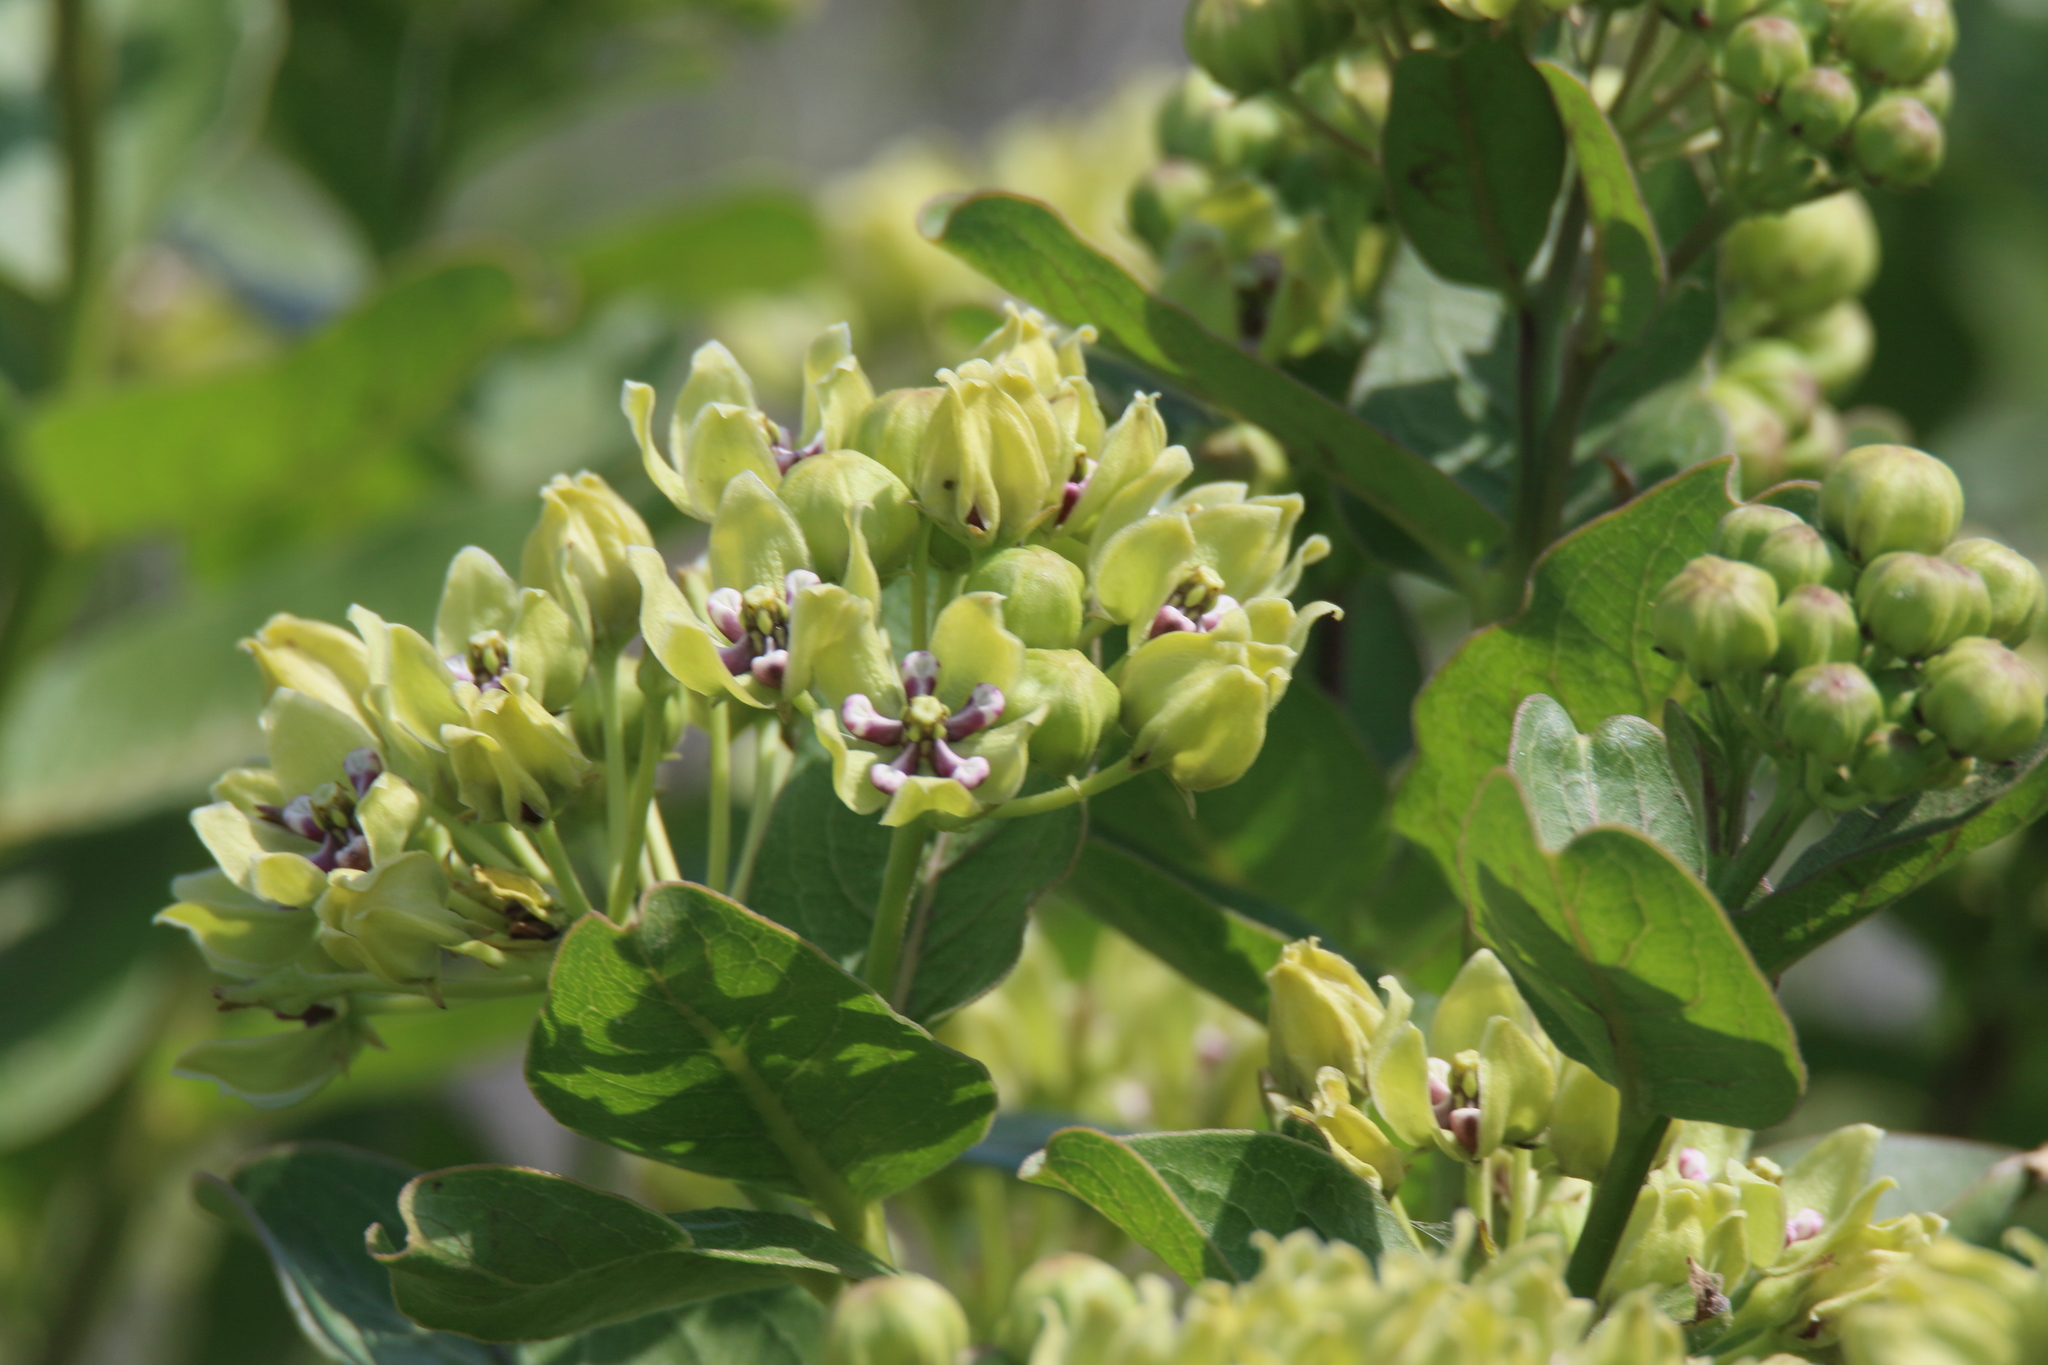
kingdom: Plantae
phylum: Tracheophyta
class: Magnoliopsida
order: Gentianales
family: Apocynaceae
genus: Asclepias
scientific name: Asclepias viridis
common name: Antelope-horns
